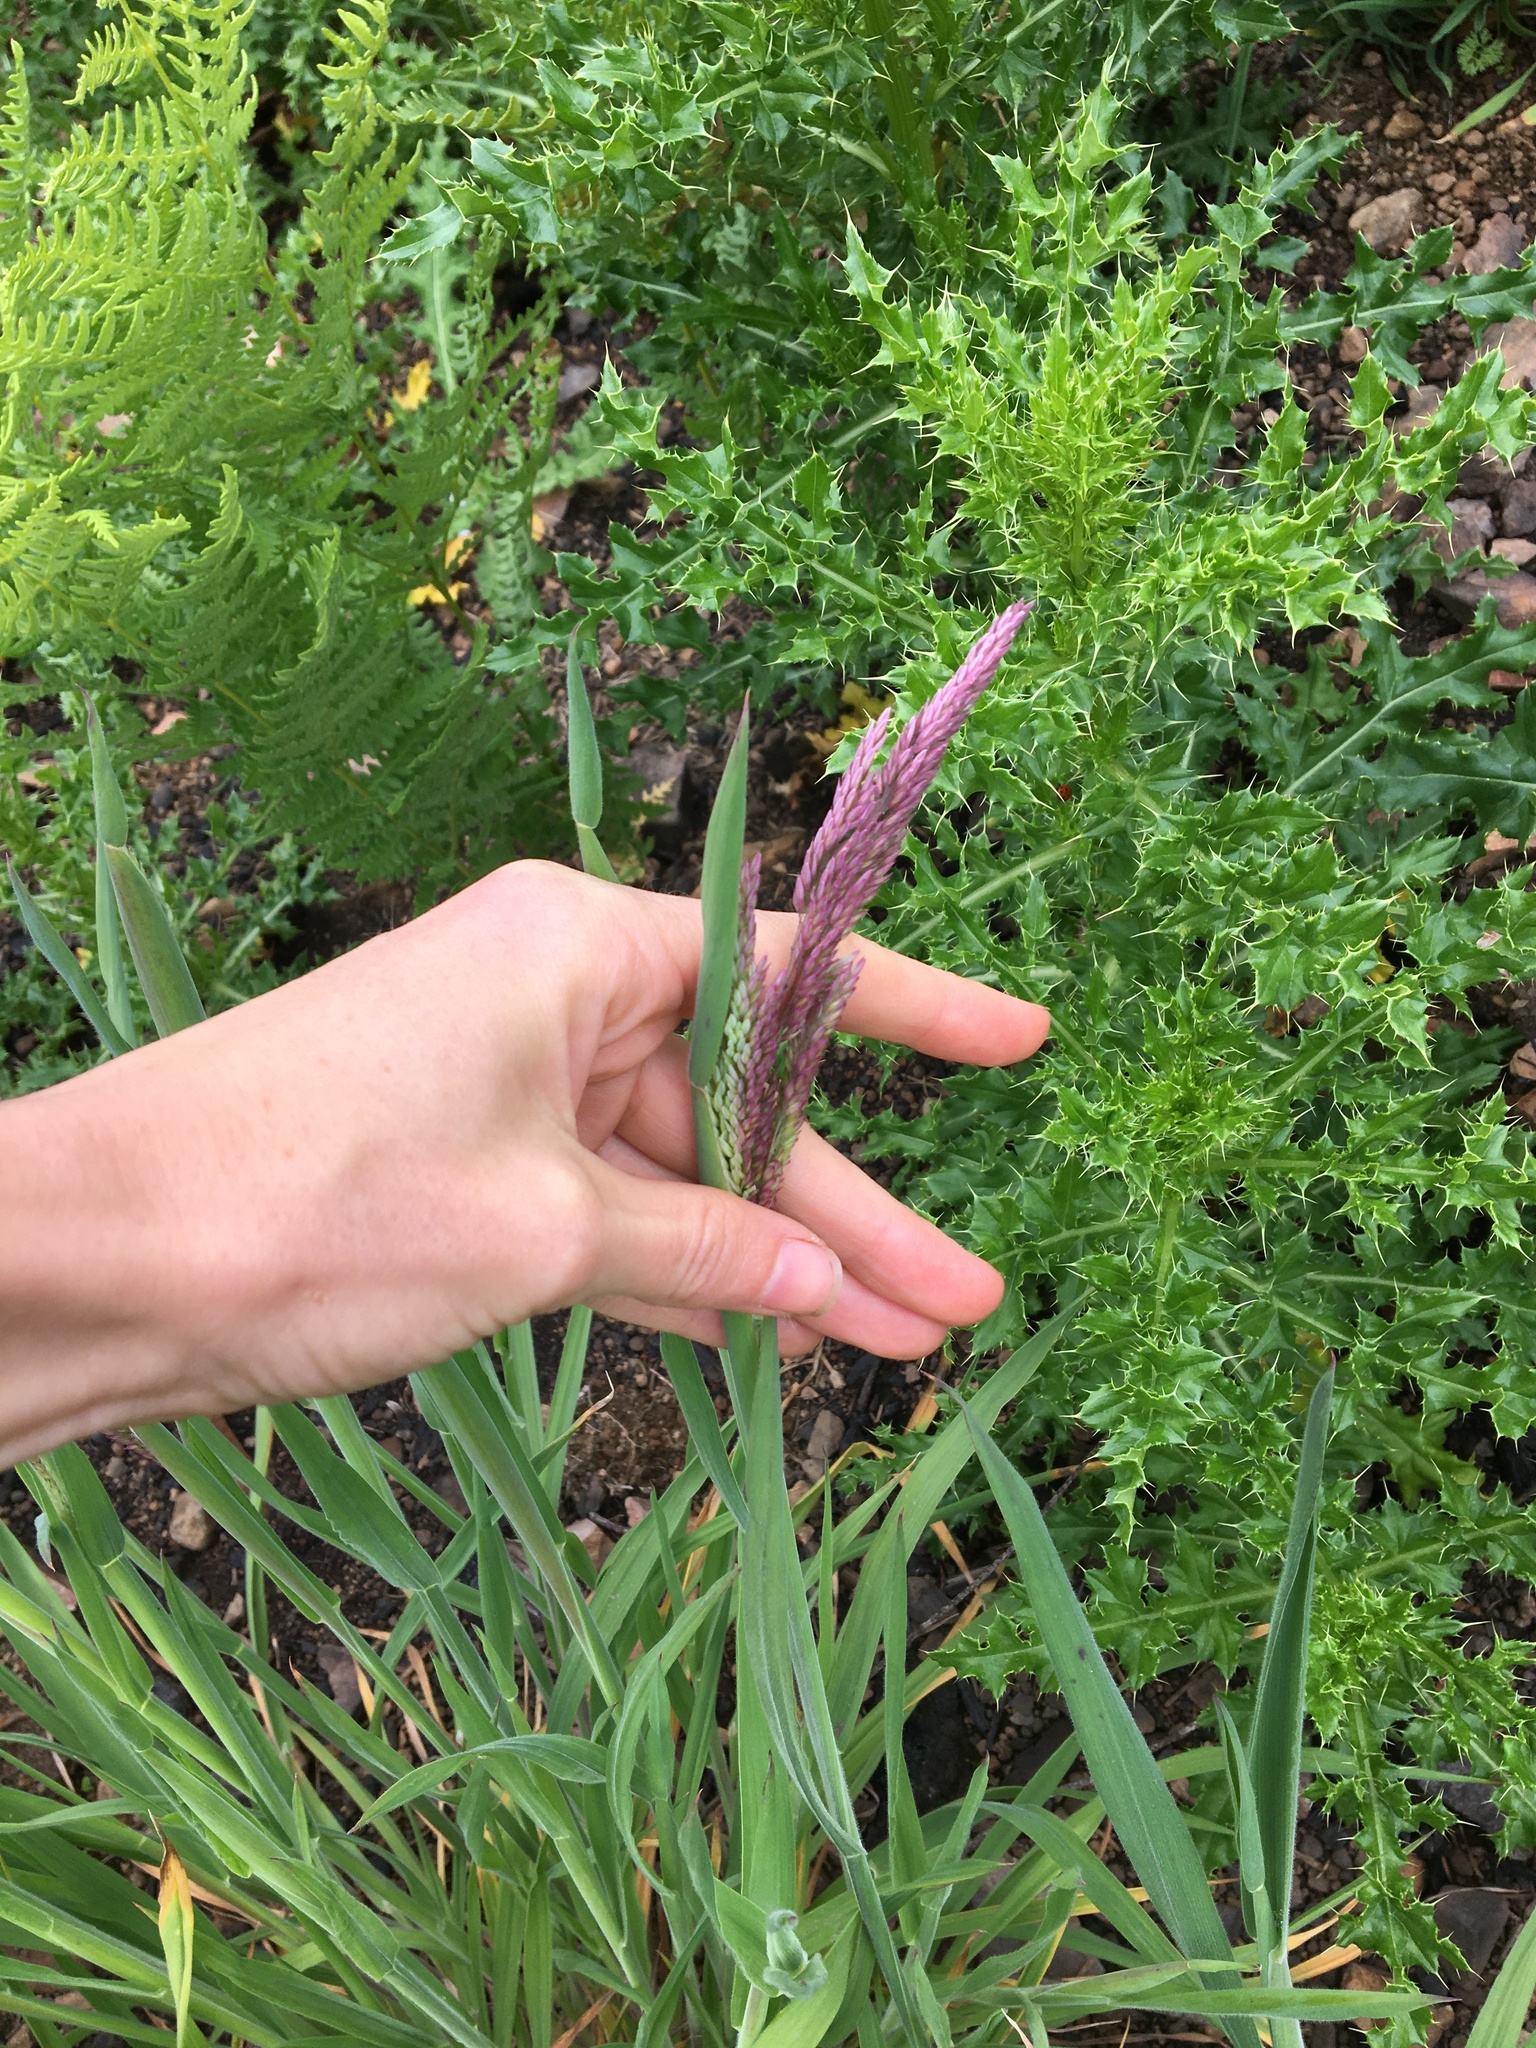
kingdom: Plantae
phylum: Tracheophyta
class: Liliopsida
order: Poales
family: Poaceae
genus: Holcus
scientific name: Holcus lanatus
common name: Yorkshire-fog
